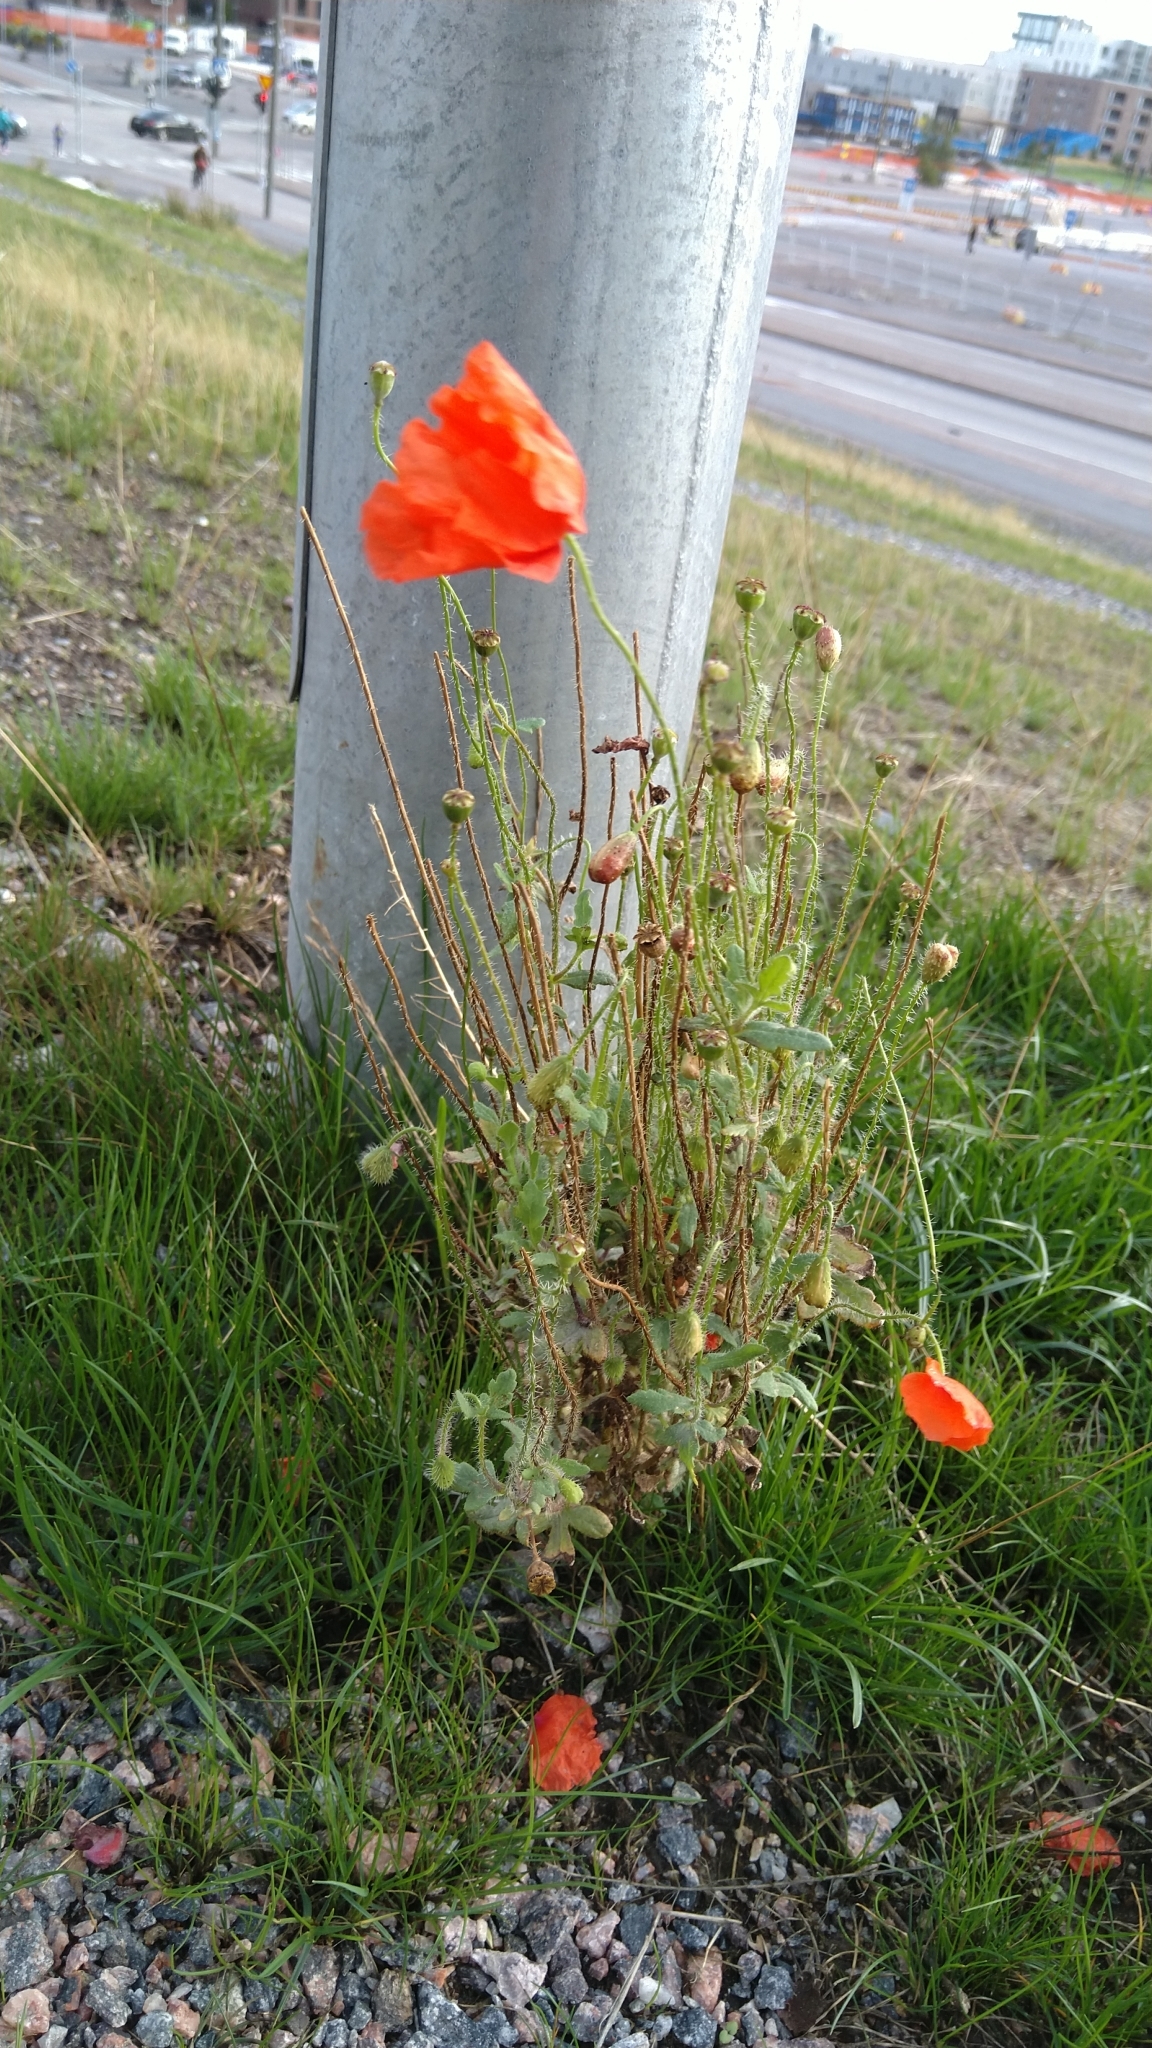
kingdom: Plantae
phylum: Tracheophyta
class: Magnoliopsida
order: Ranunculales
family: Papaveraceae
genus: Papaver
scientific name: Papaver rhoeas
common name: Corn poppy
